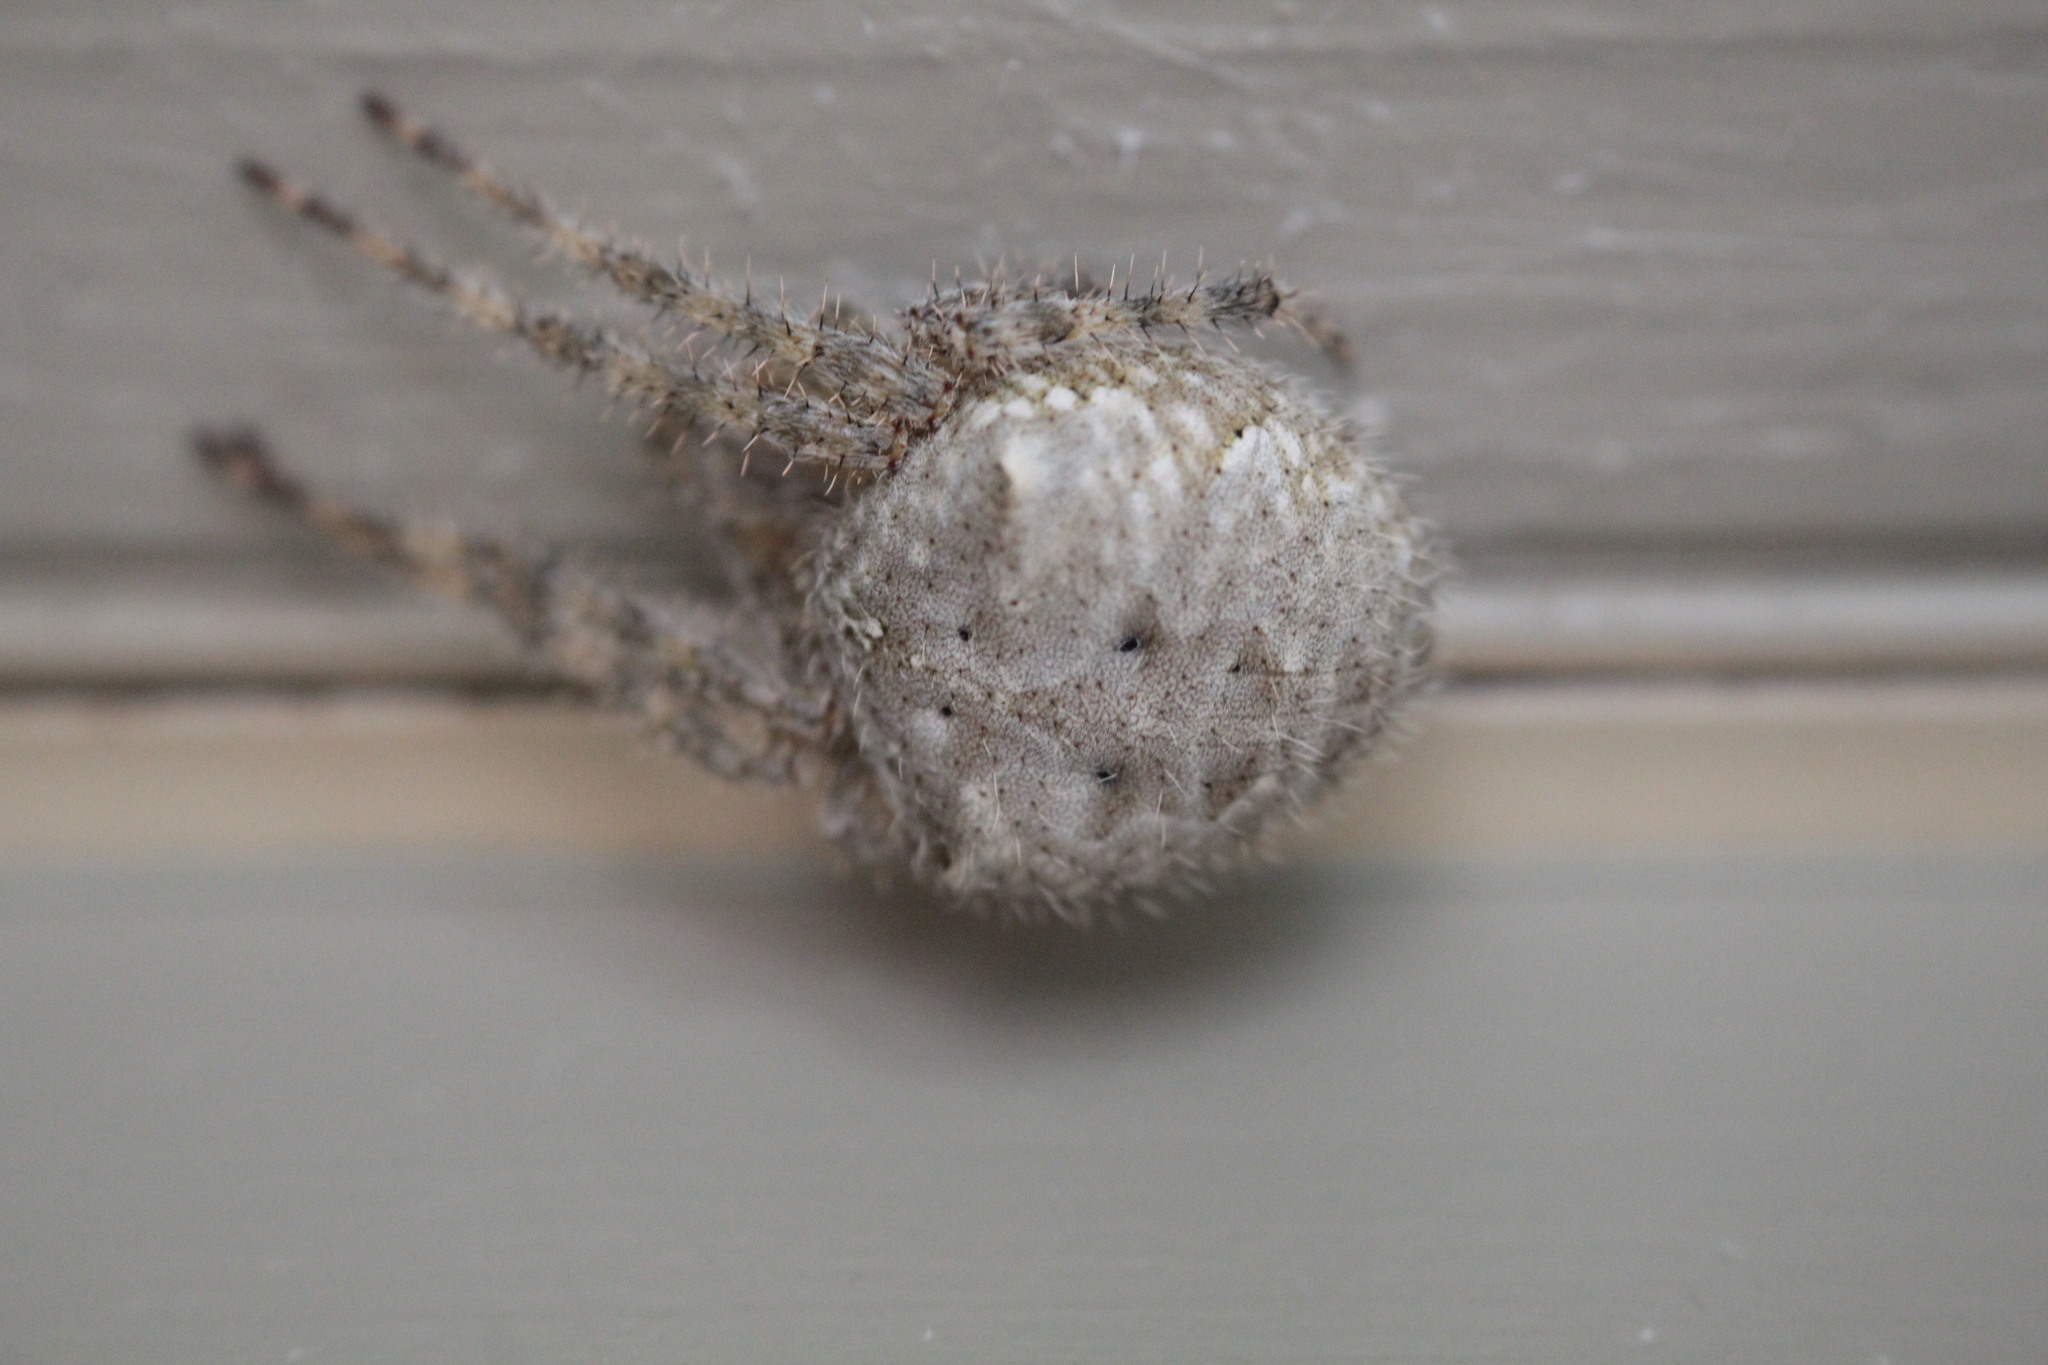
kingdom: Animalia
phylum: Arthropoda
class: Arachnida
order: Araneae
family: Araneidae
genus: Araneus
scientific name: Araneus cavaticus
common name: Barn orbweaver
